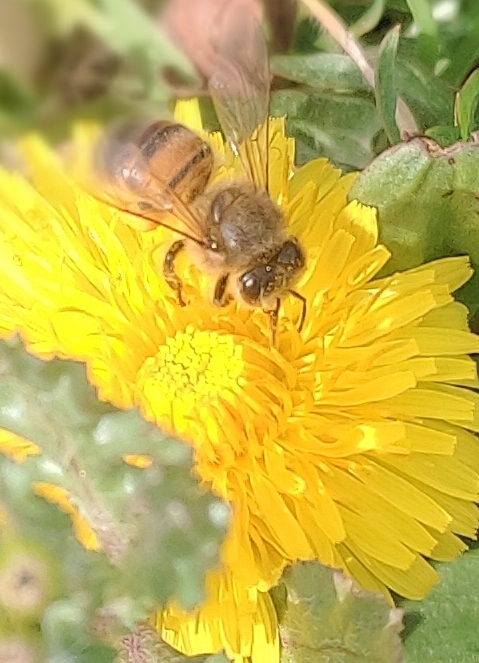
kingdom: Animalia
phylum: Arthropoda
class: Insecta
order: Hymenoptera
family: Apidae
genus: Apis
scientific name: Apis mellifera
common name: Honey bee
